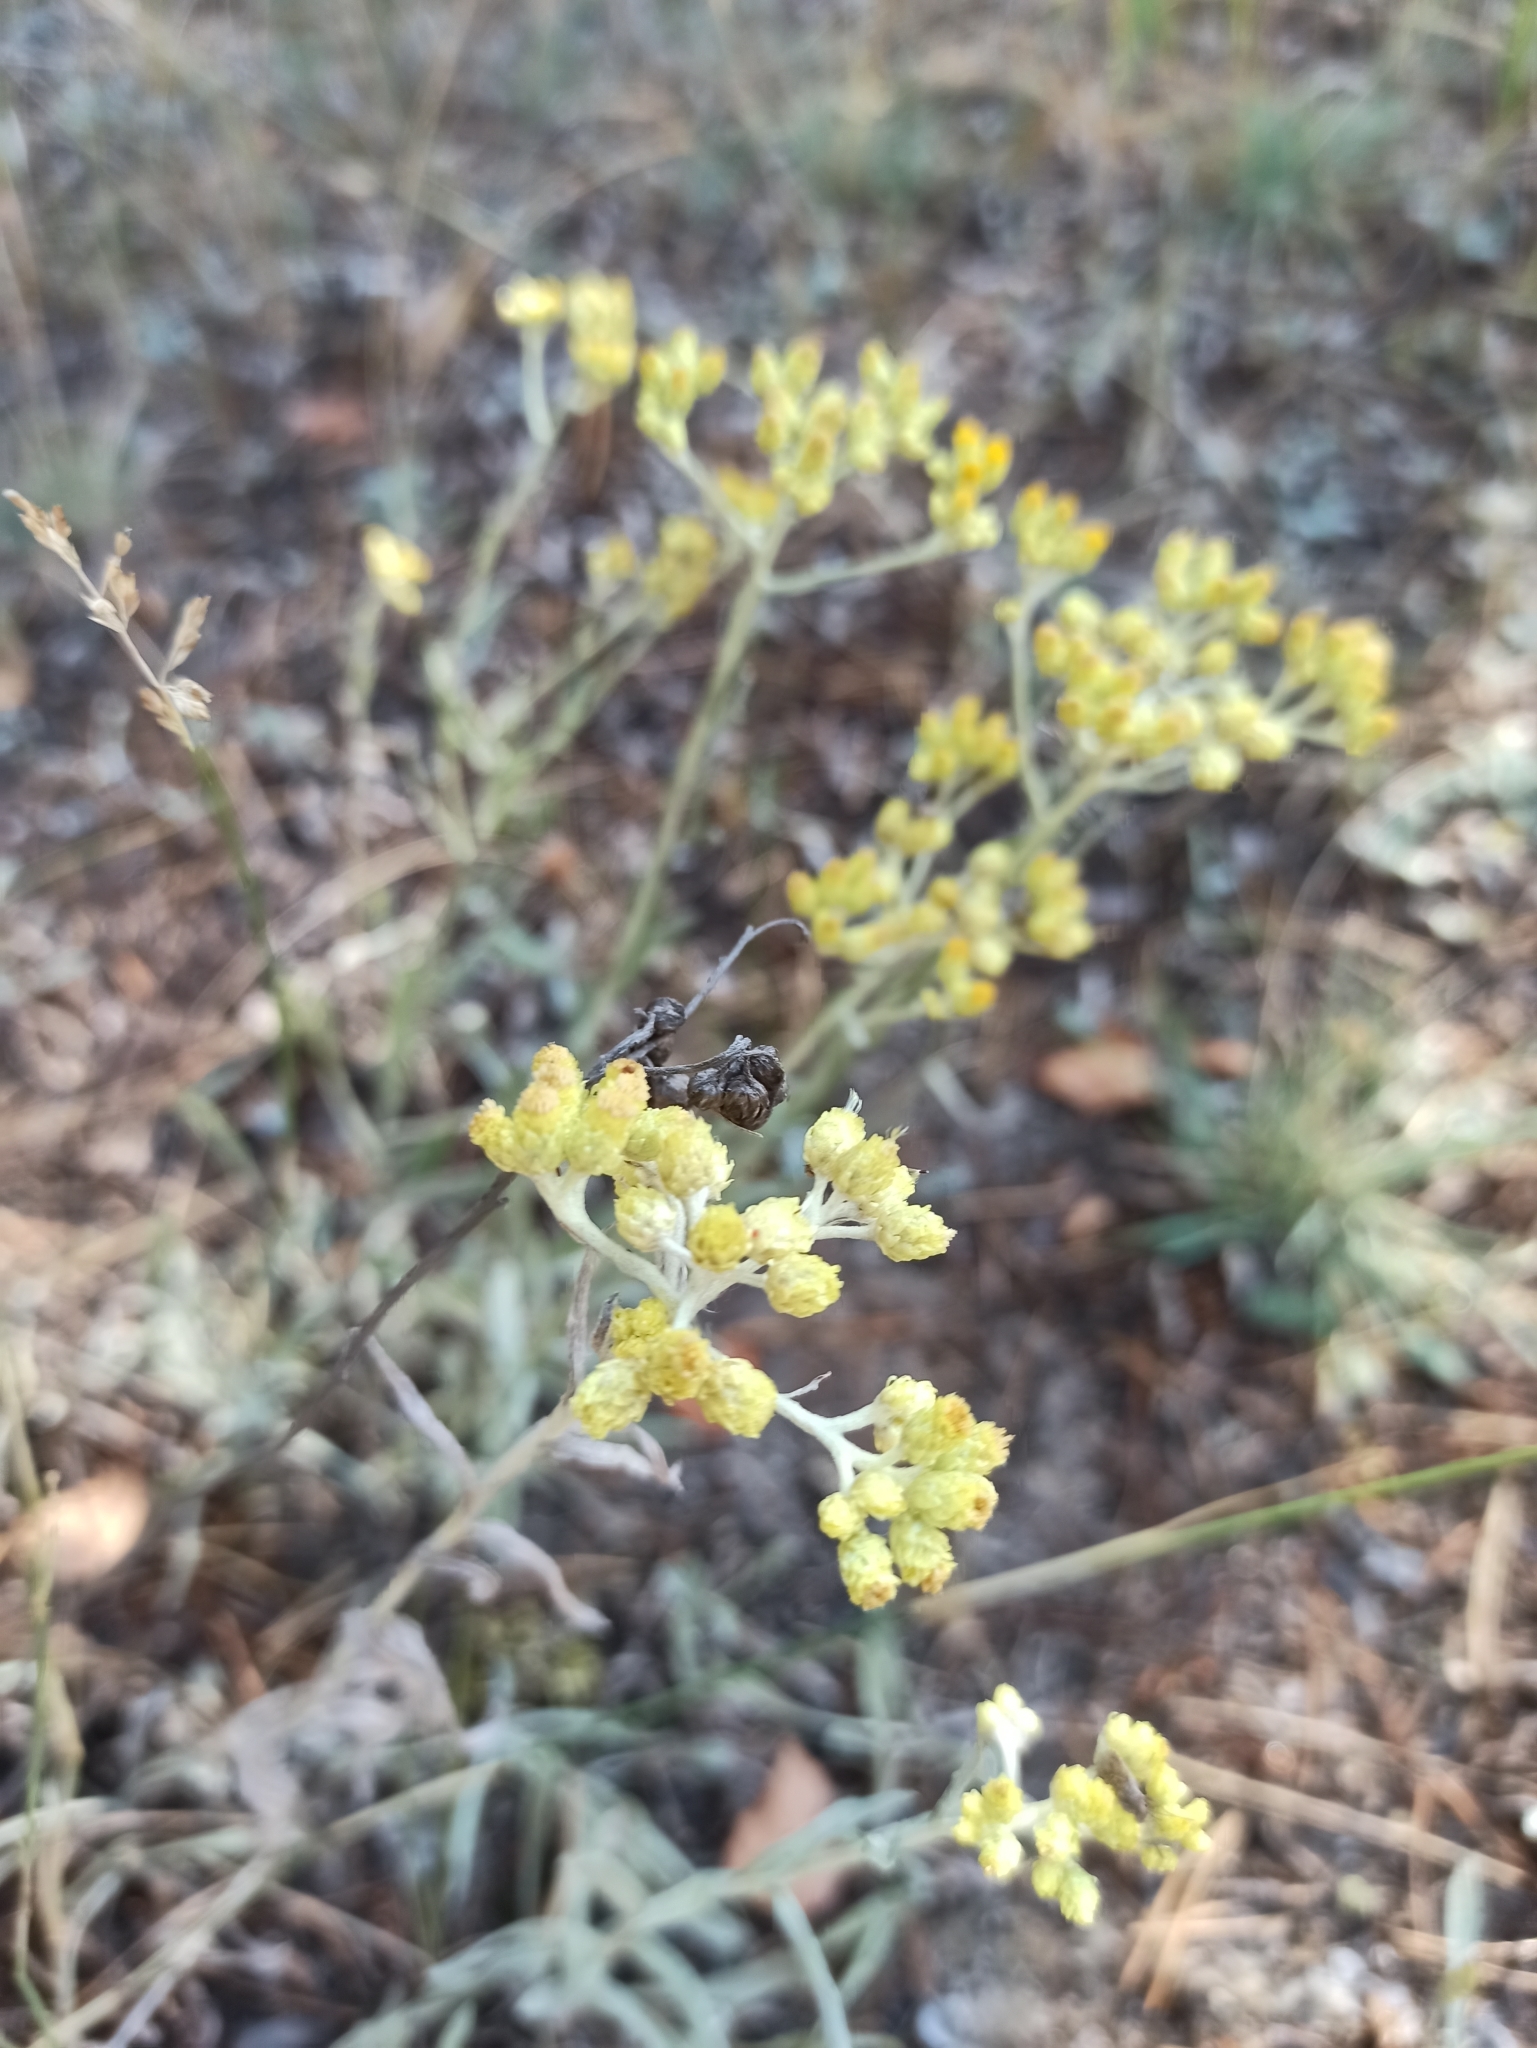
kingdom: Plantae
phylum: Tracheophyta
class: Magnoliopsida
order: Asterales
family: Asteraceae
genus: Helichrysum
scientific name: Helichrysum arenarium
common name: Strawflower
